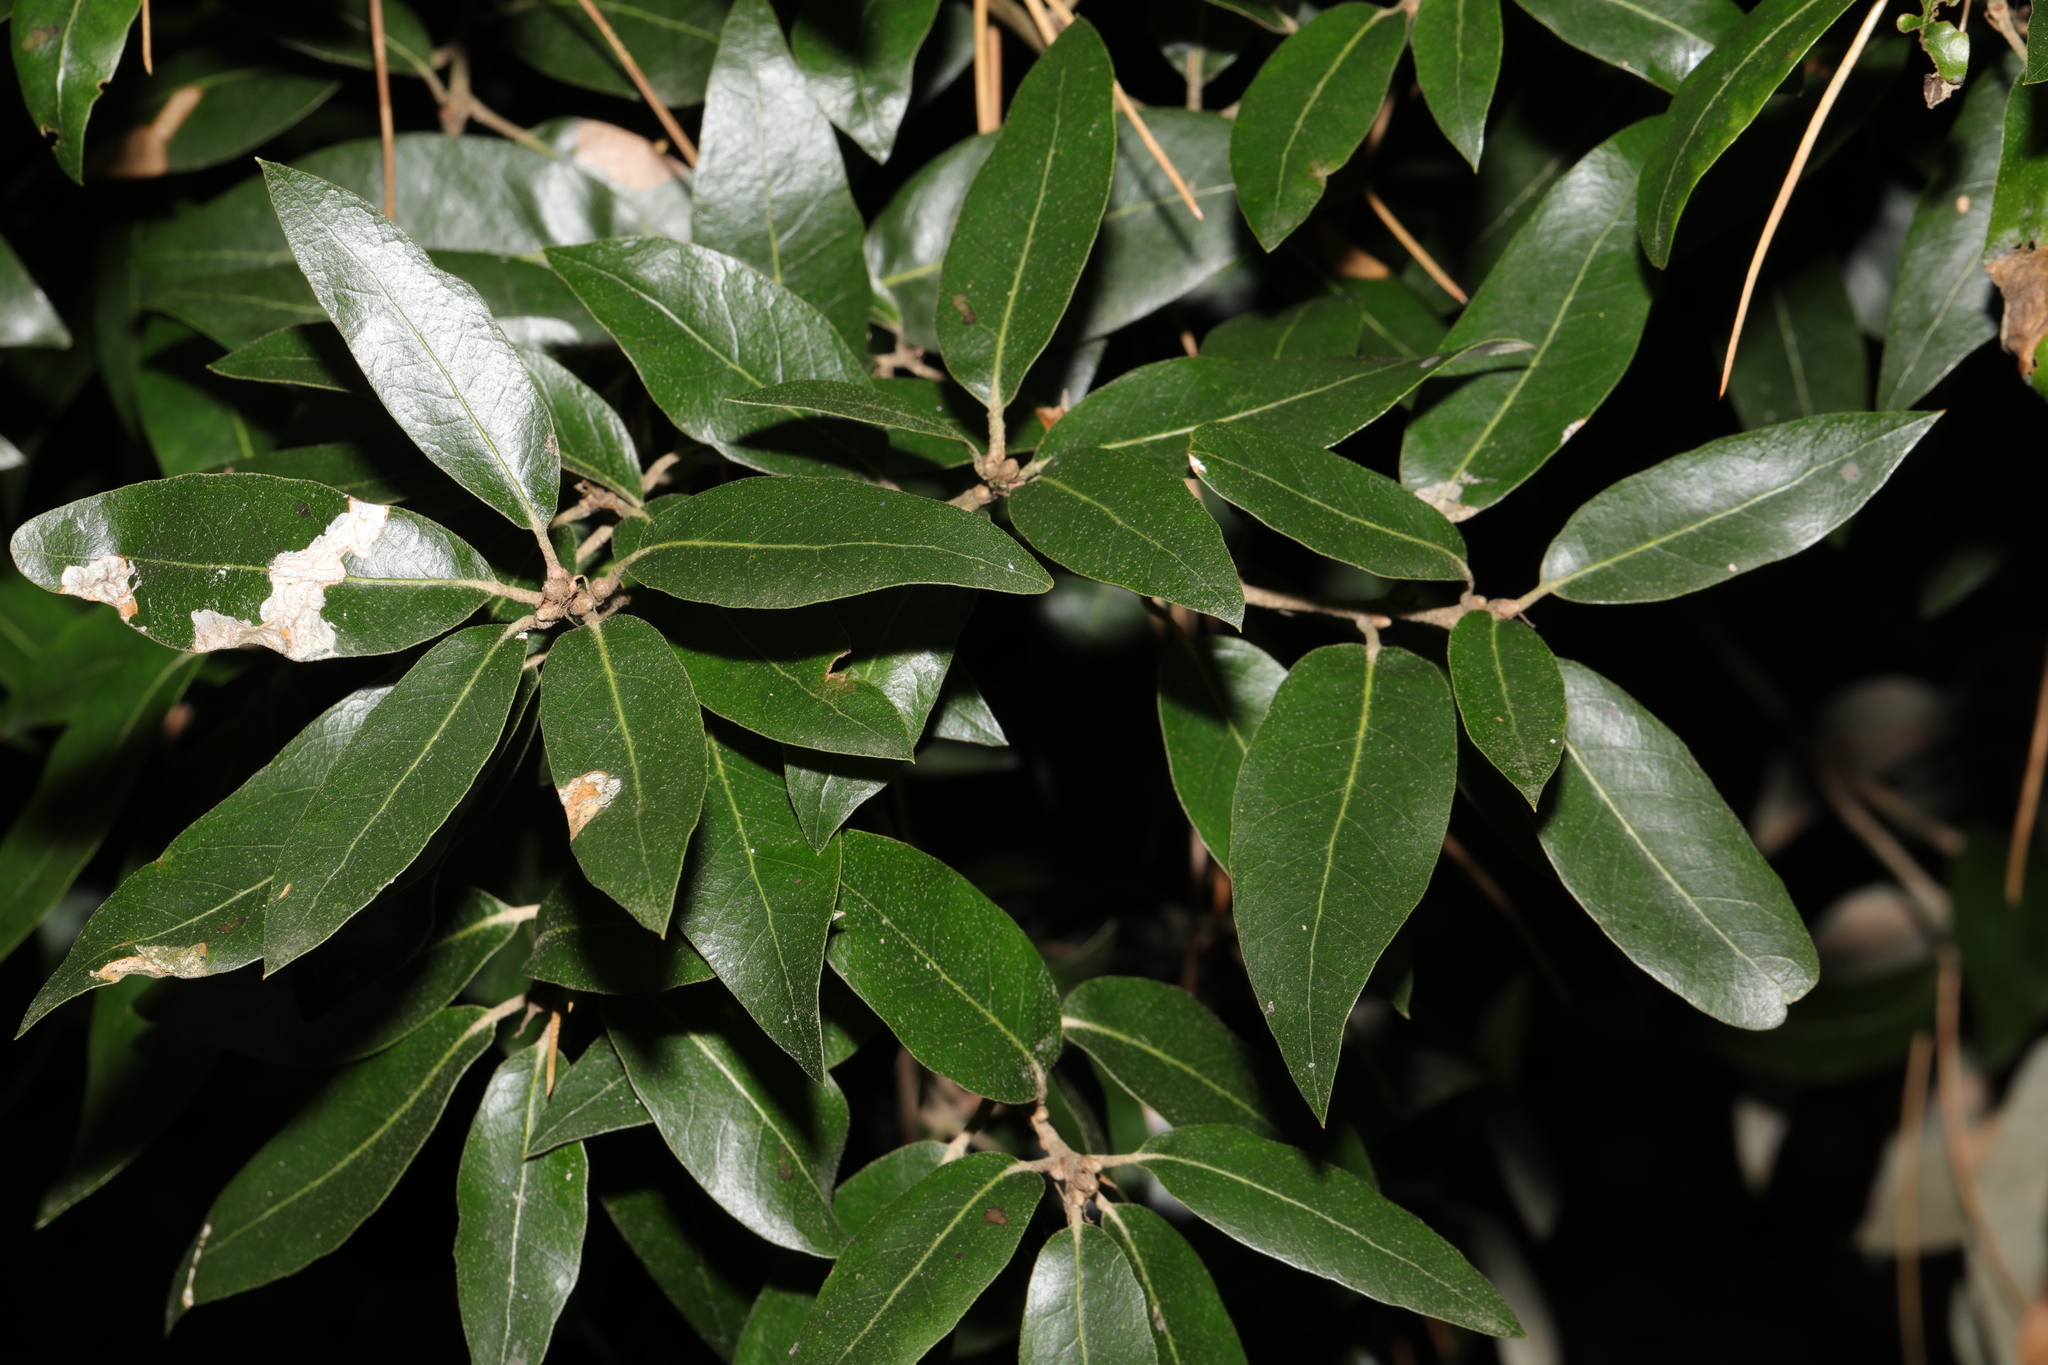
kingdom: Plantae
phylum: Tracheophyta
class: Magnoliopsida
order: Fagales
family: Fagaceae
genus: Quercus
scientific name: Quercus ilex
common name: Evergreen oak
